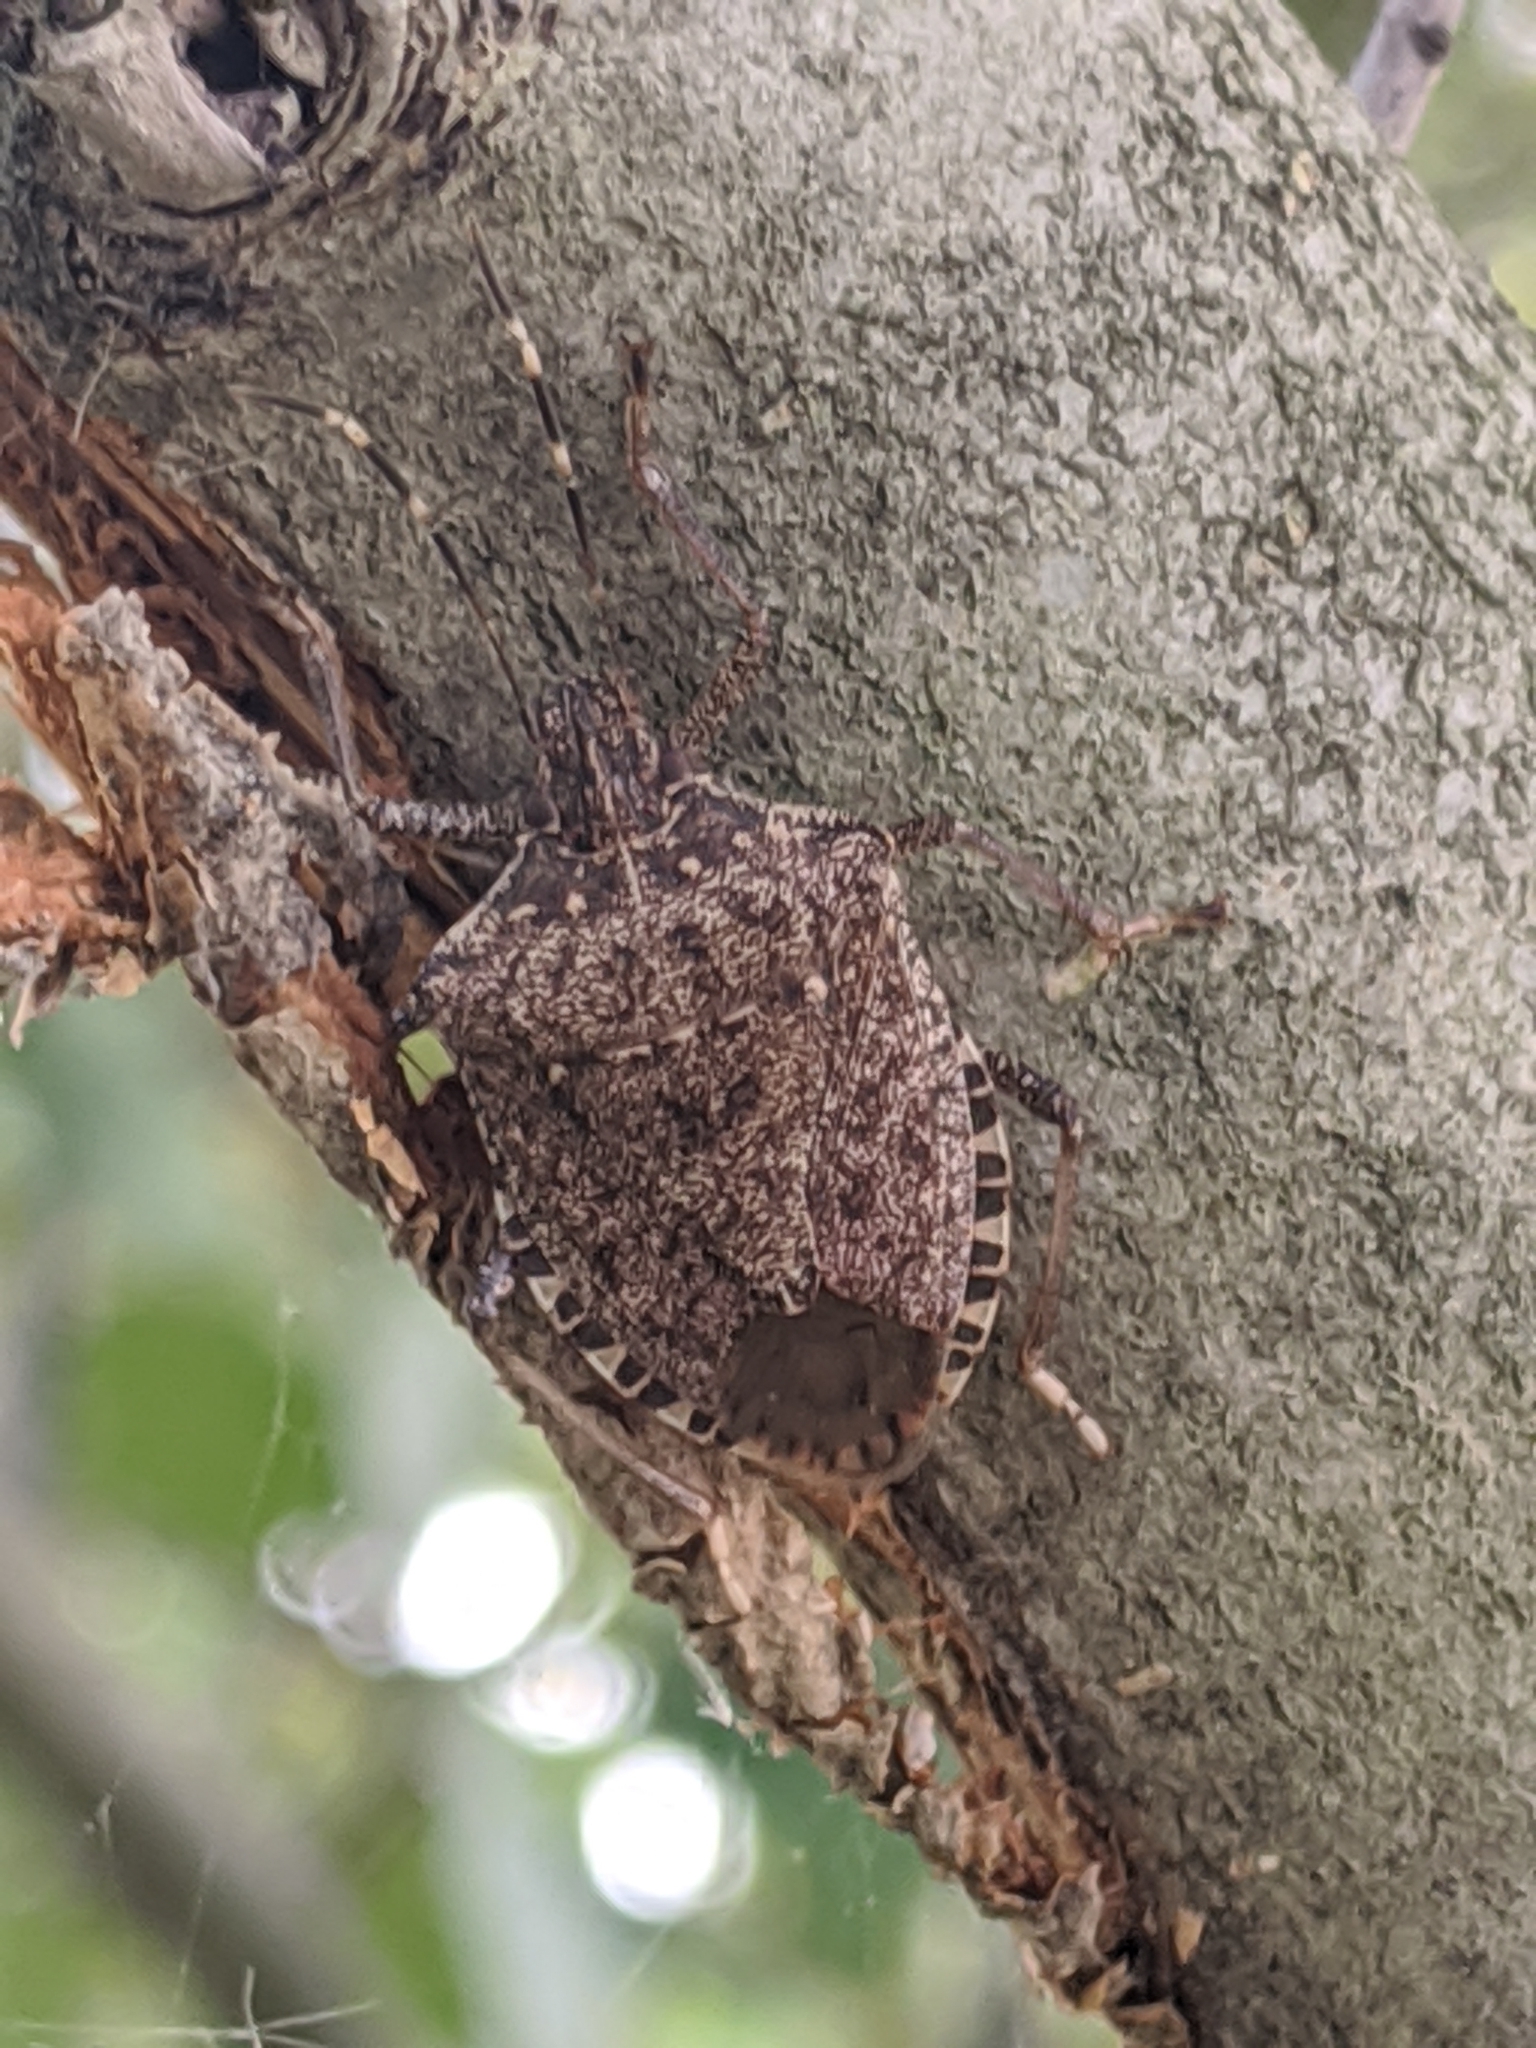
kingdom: Animalia
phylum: Arthropoda
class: Insecta
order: Hemiptera
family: Pentatomidae
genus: Halyomorpha
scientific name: Halyomorpha halys
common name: Brown marmorated stink bug
